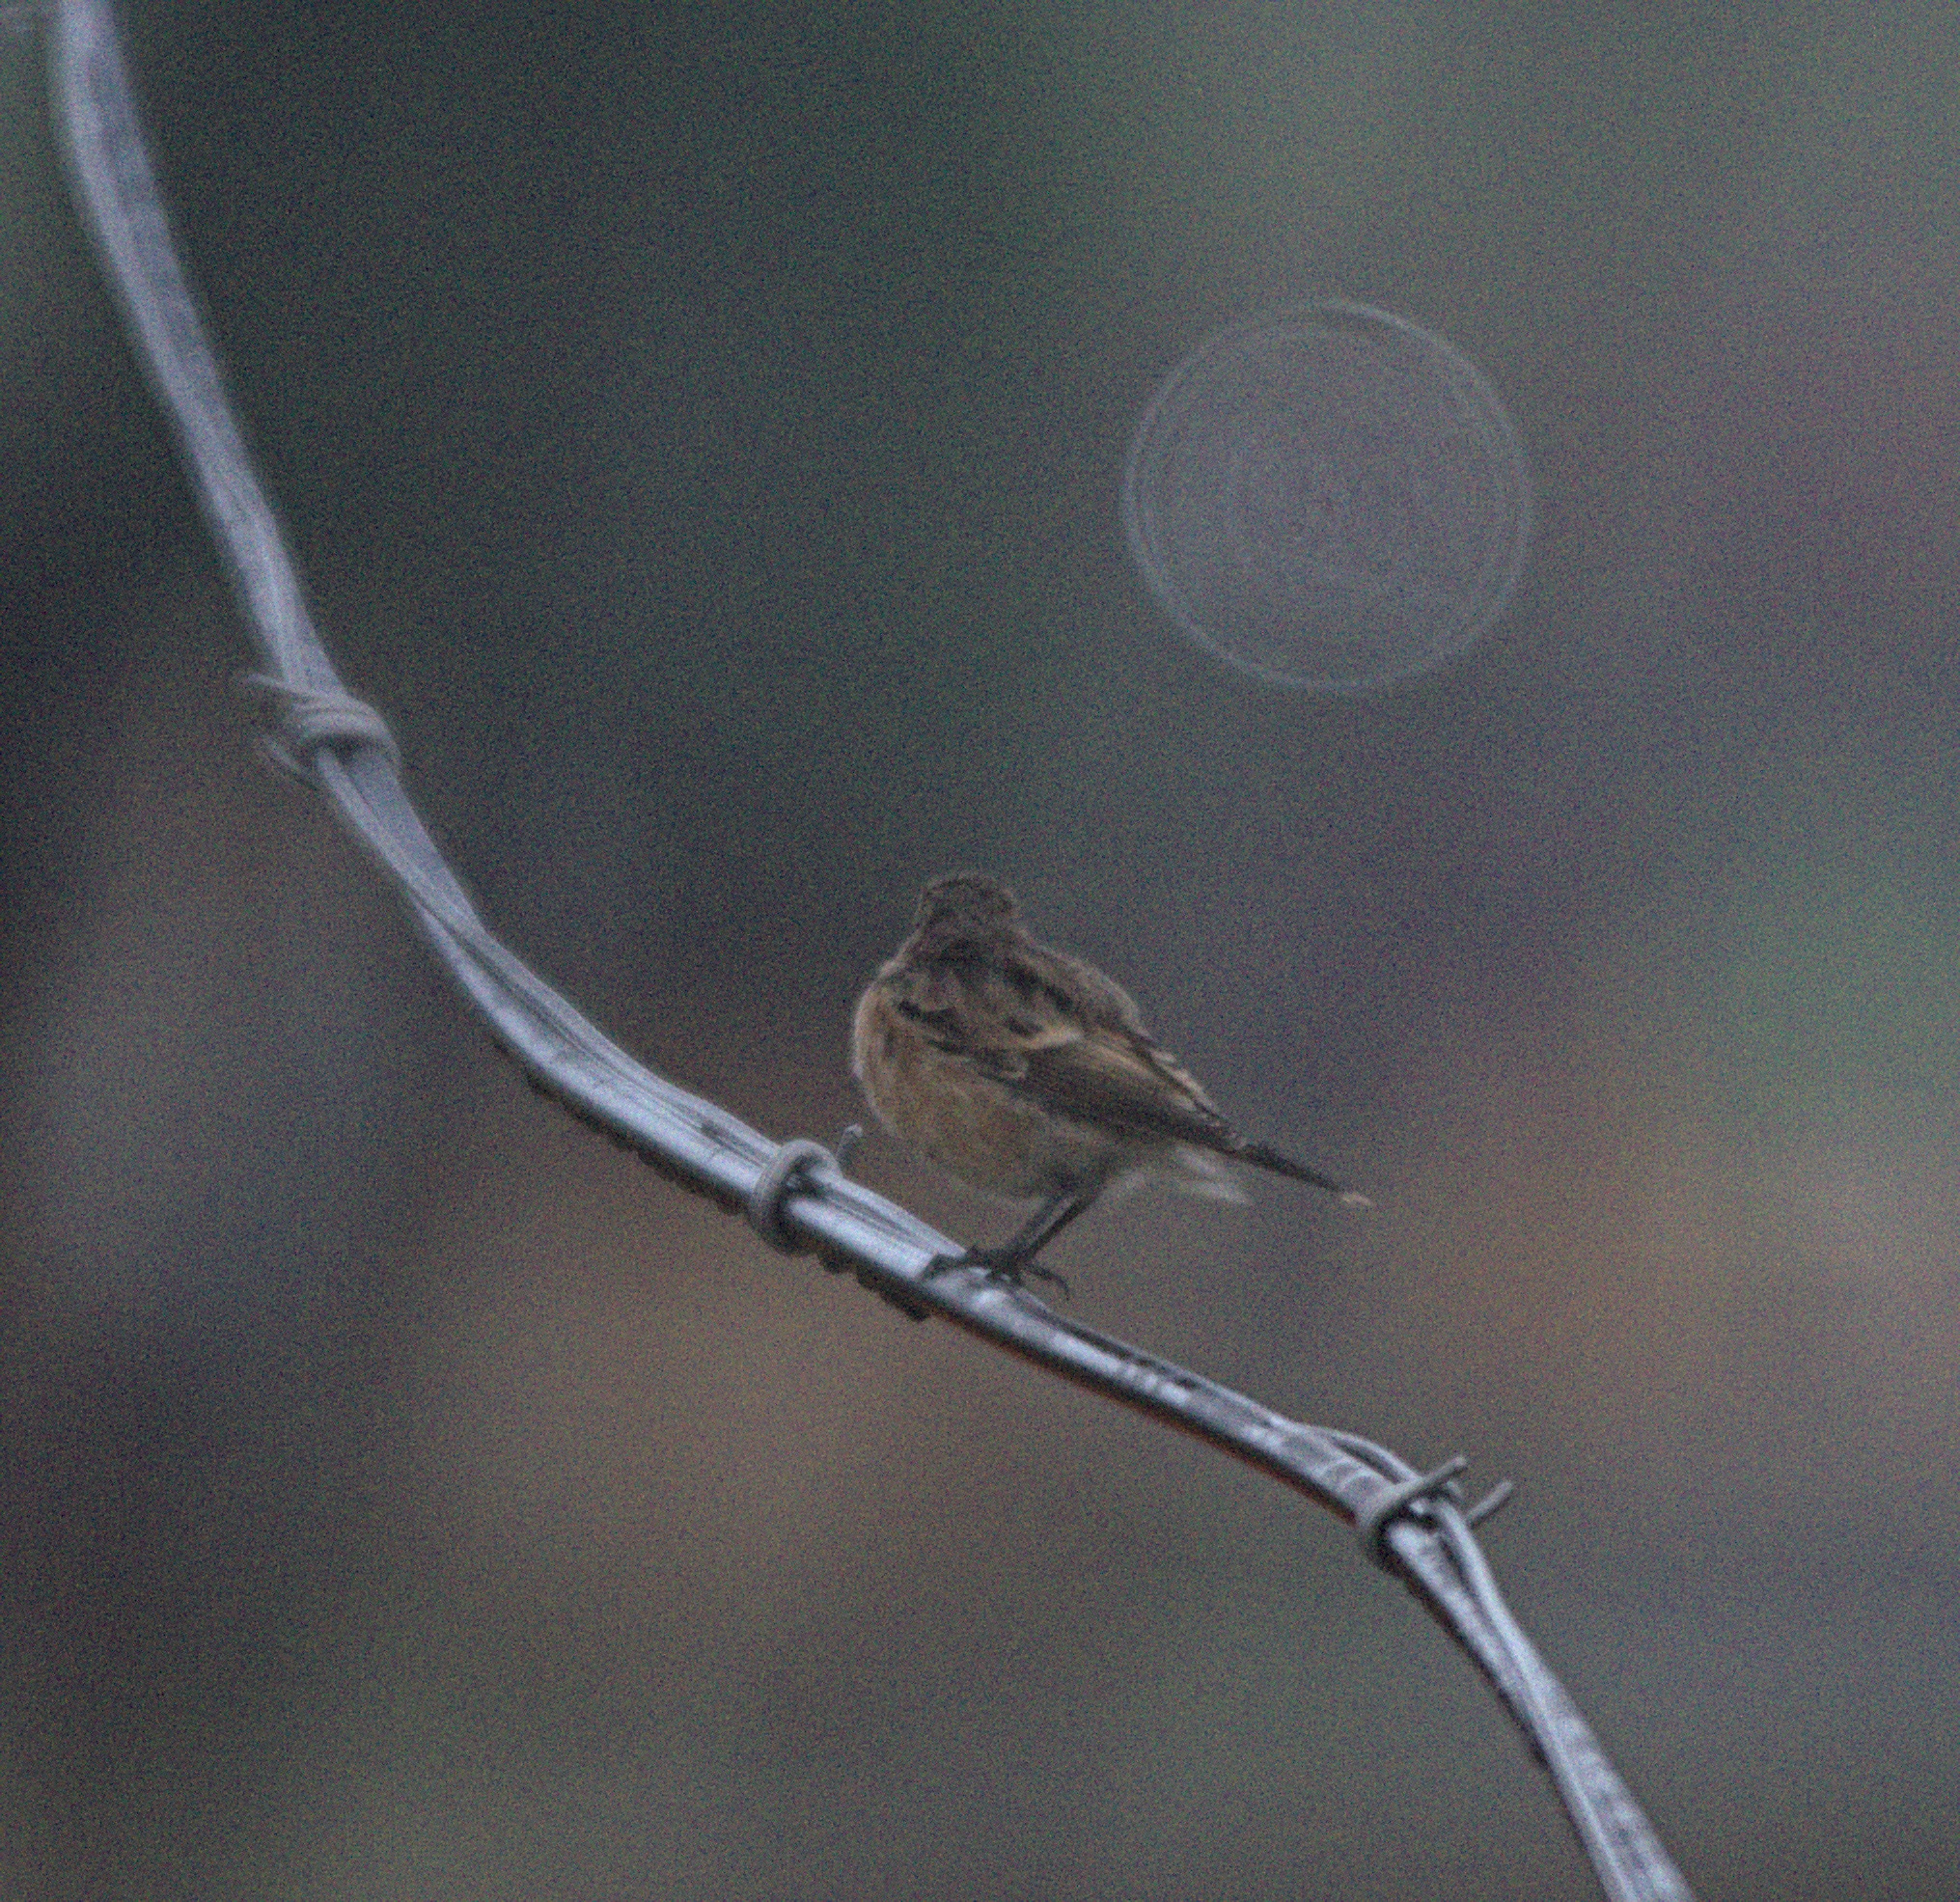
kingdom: Animalia
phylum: Chordata
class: Aves
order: Passeriformes
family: Muscicapidae
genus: Saxicola
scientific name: Saxicola maurus
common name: Siberian stonechat
